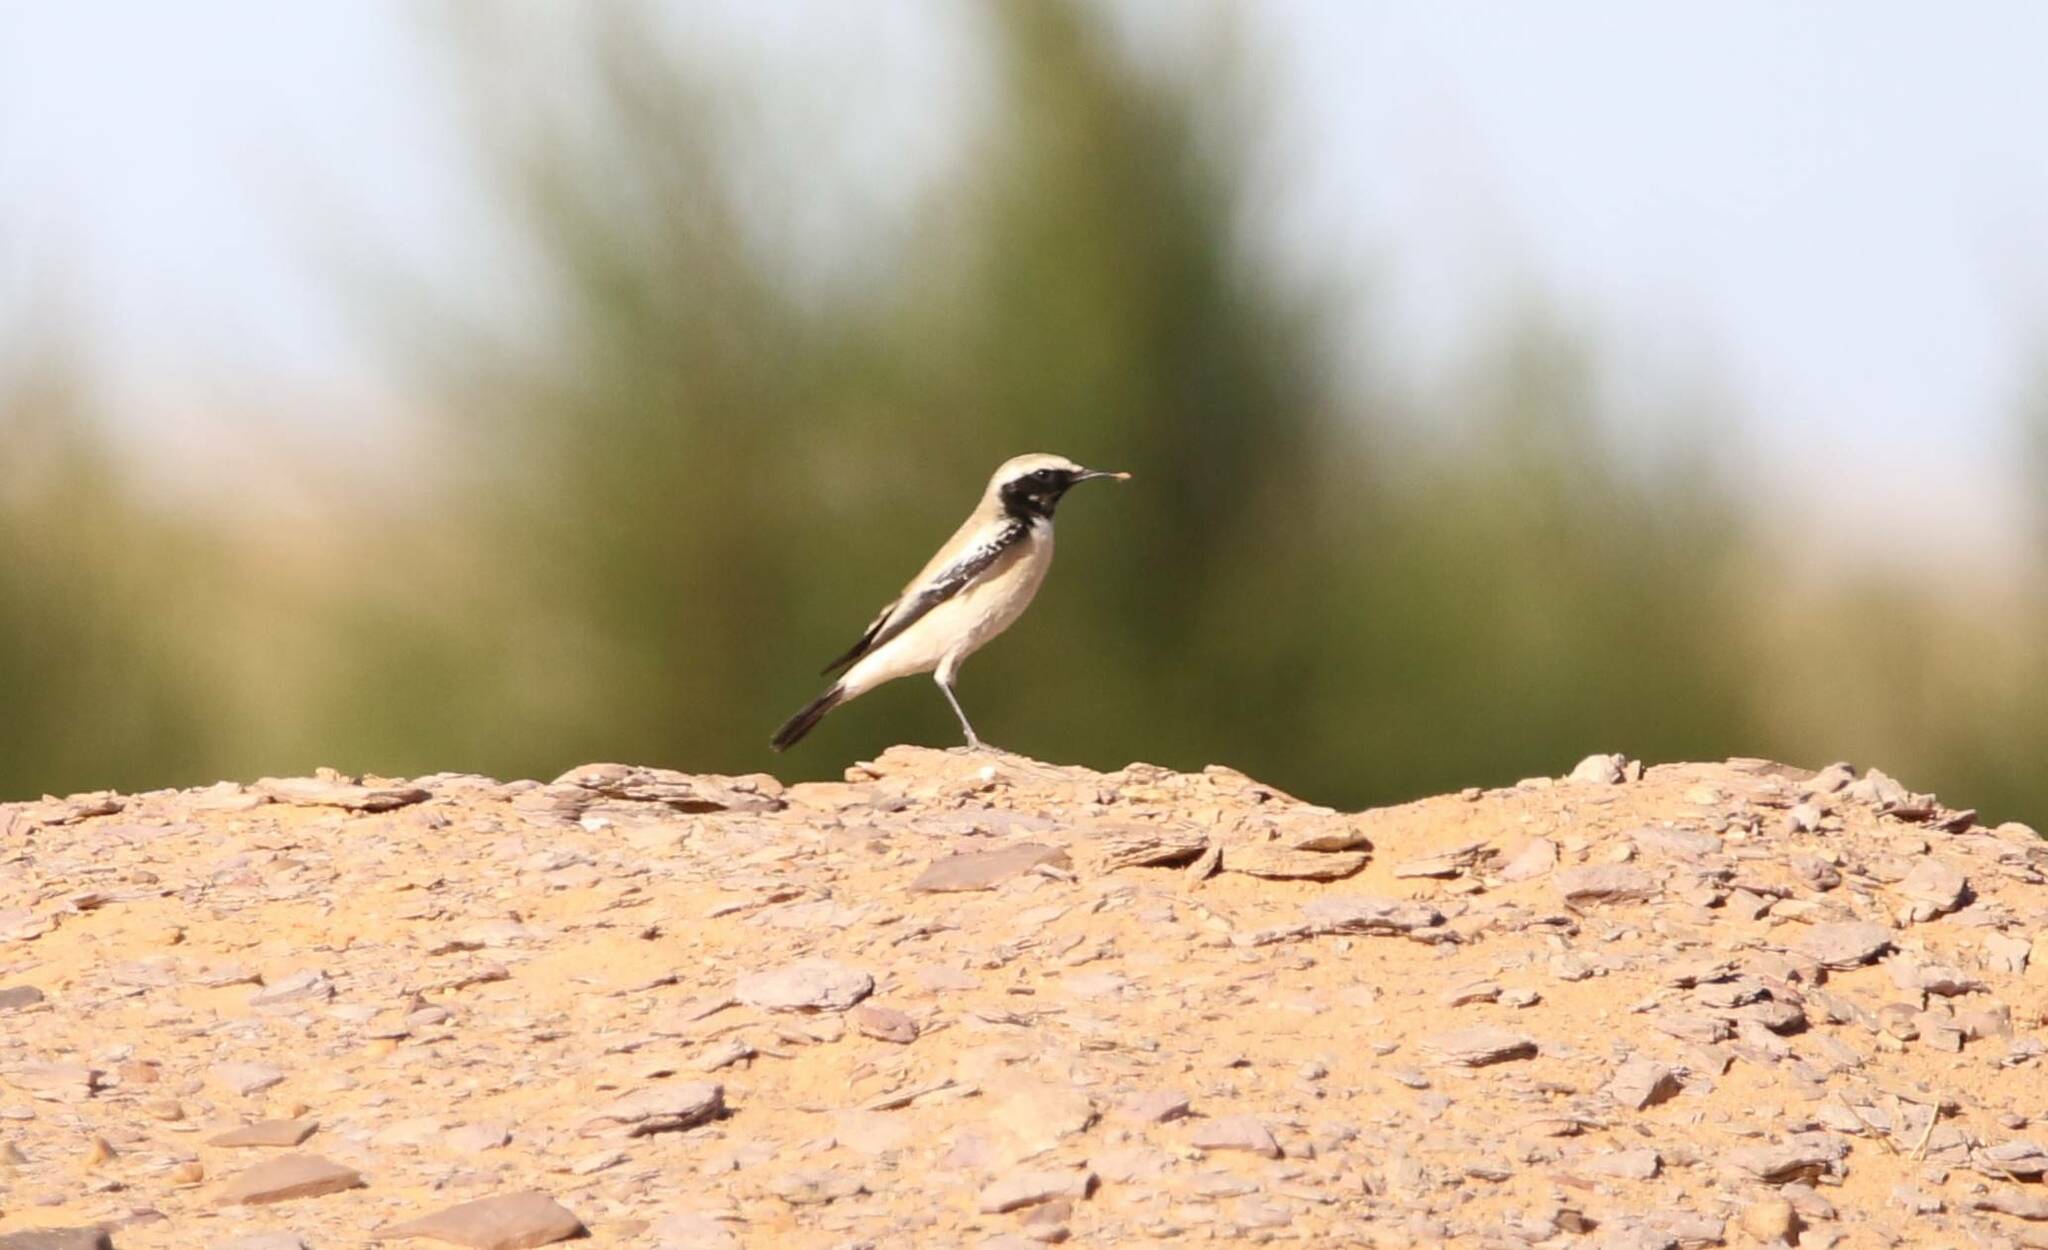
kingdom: Animalia
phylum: Chordata
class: Aves
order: Passeriformes
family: Muscicapidae
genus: Oenanthe
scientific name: Oenanthe deserti
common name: Desert wheatear
